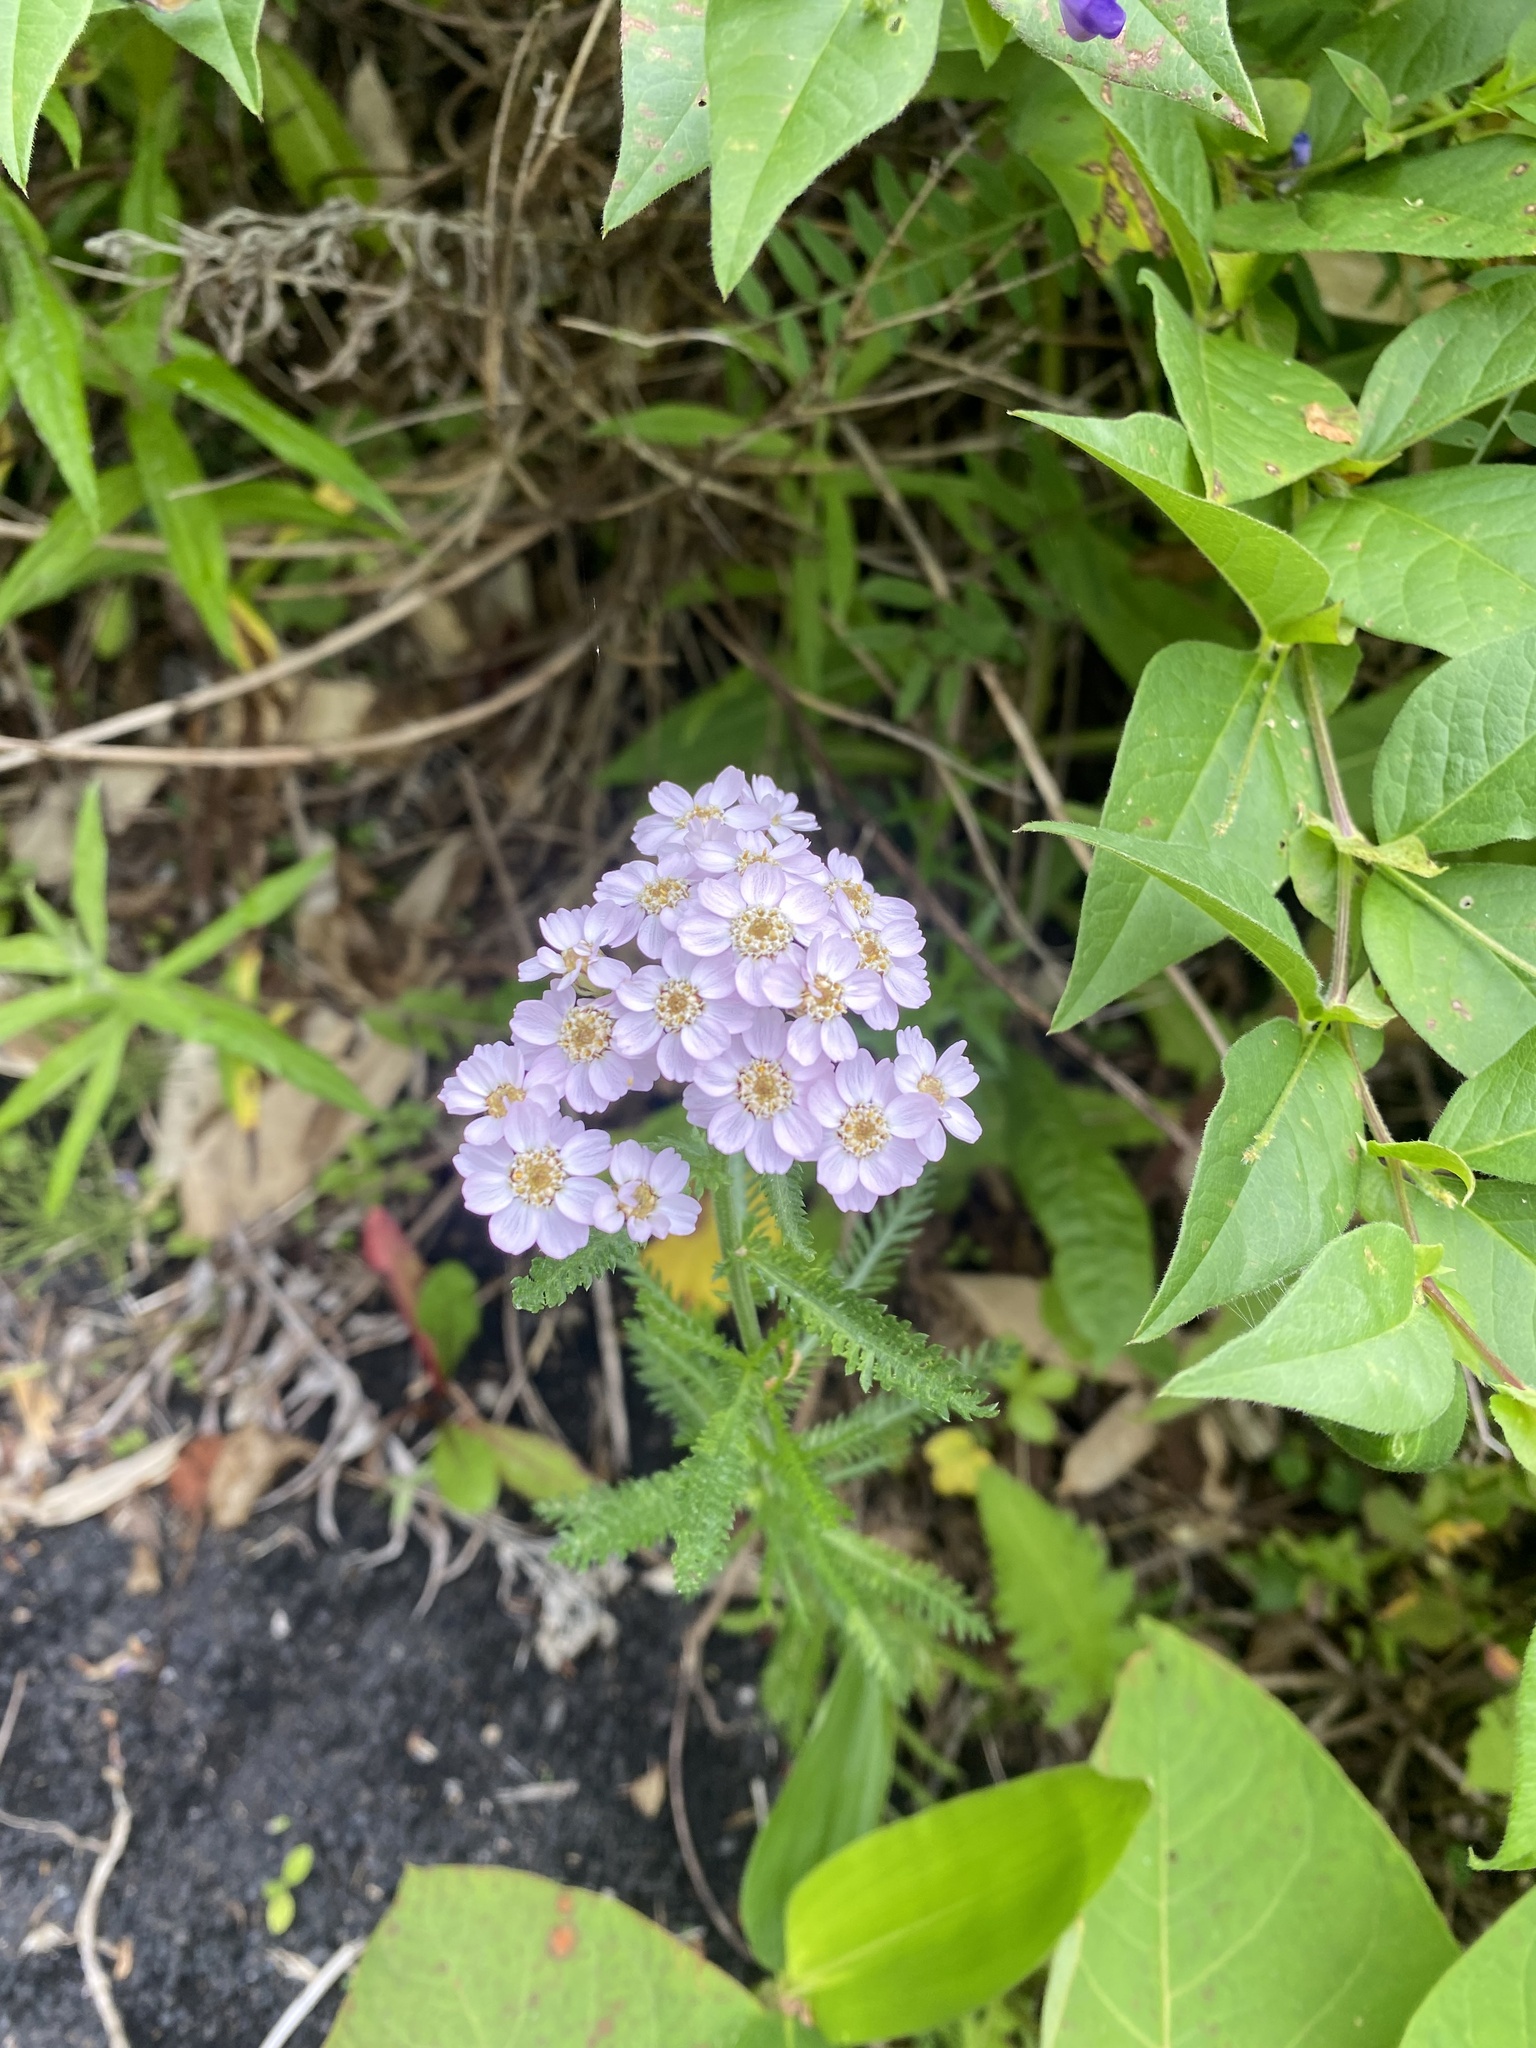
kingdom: Plantae
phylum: Tracheophyta
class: Magnoliopsida
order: Asterales
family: Asteraceae
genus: Achillea
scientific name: Achillea alpina
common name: Siberian yarrow
